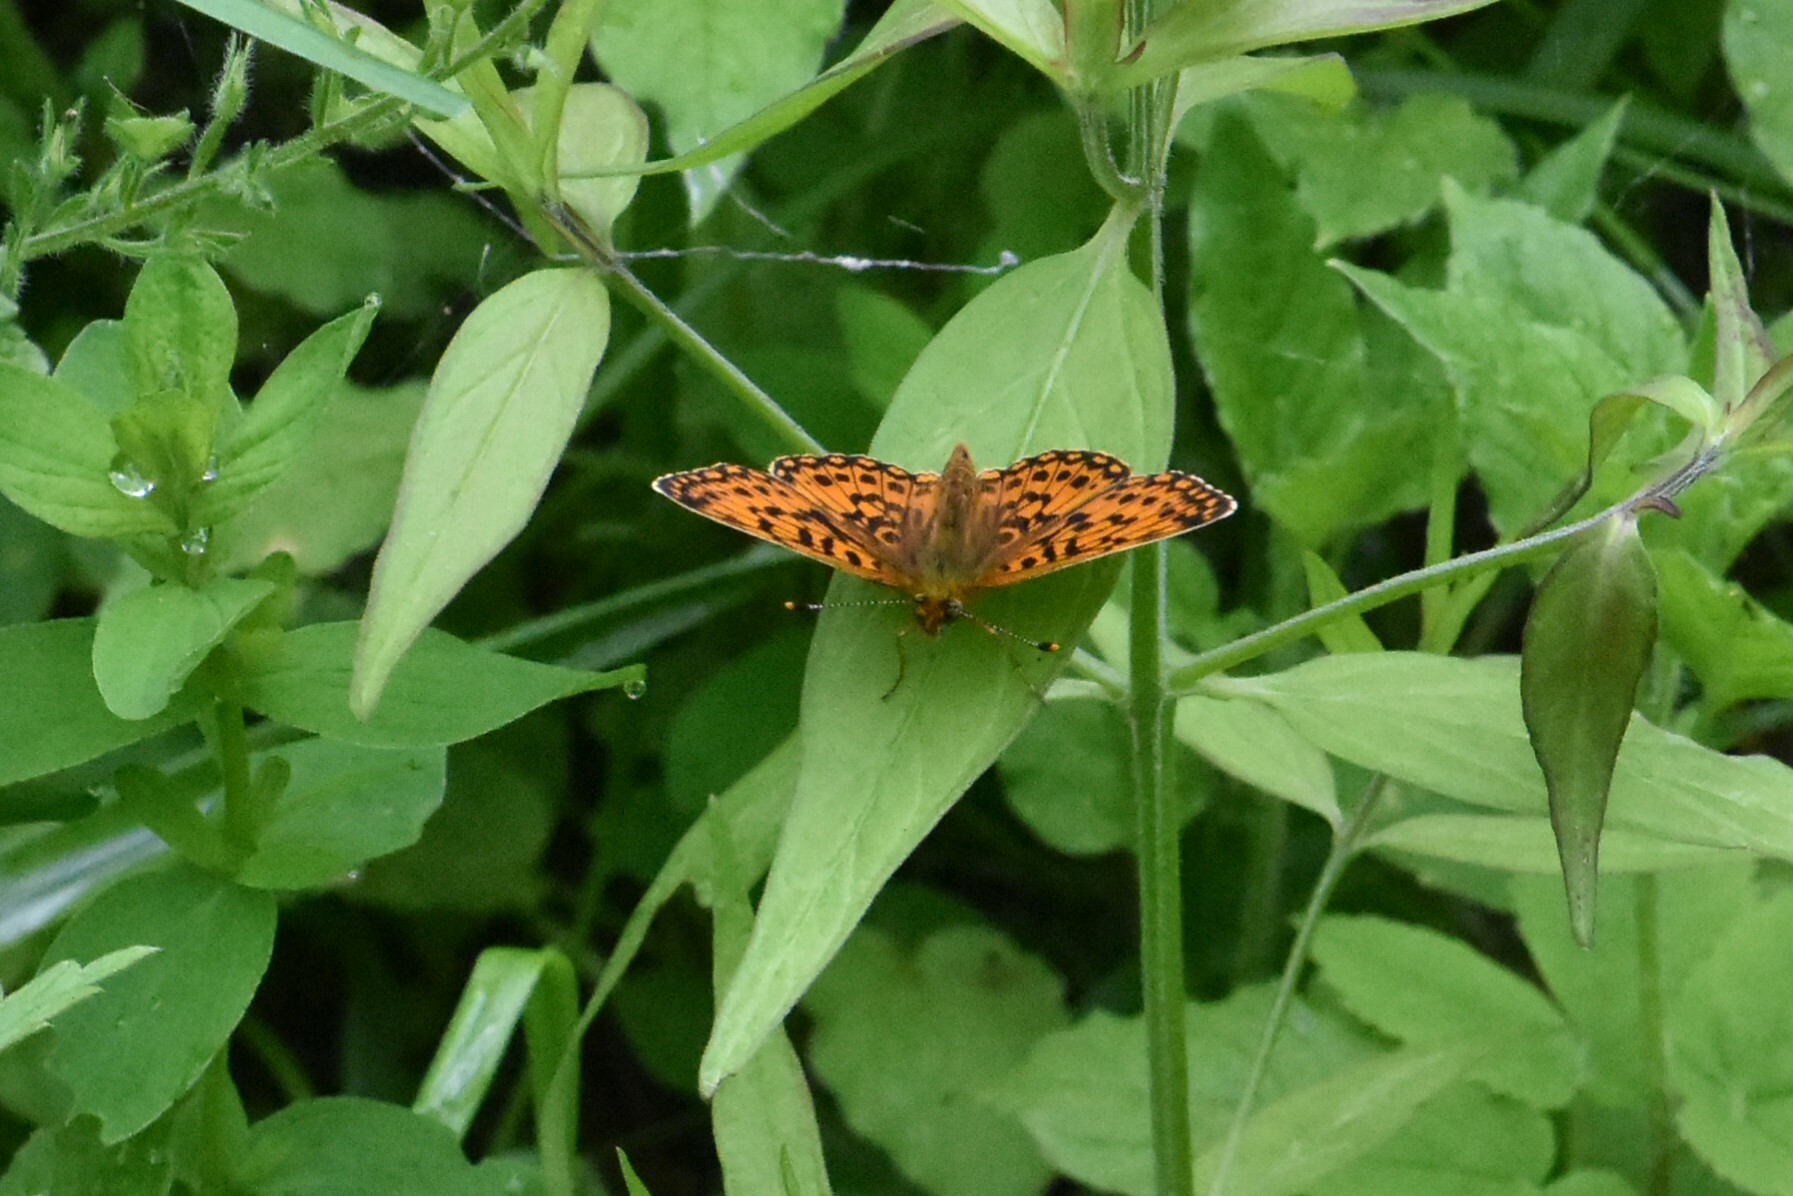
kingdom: Animalia
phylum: Arthropoda
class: Insecta
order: Lepidoptera
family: Nymphalidae
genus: Boloria
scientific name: Boloria selene
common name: Small pearl-bordered fritillary
